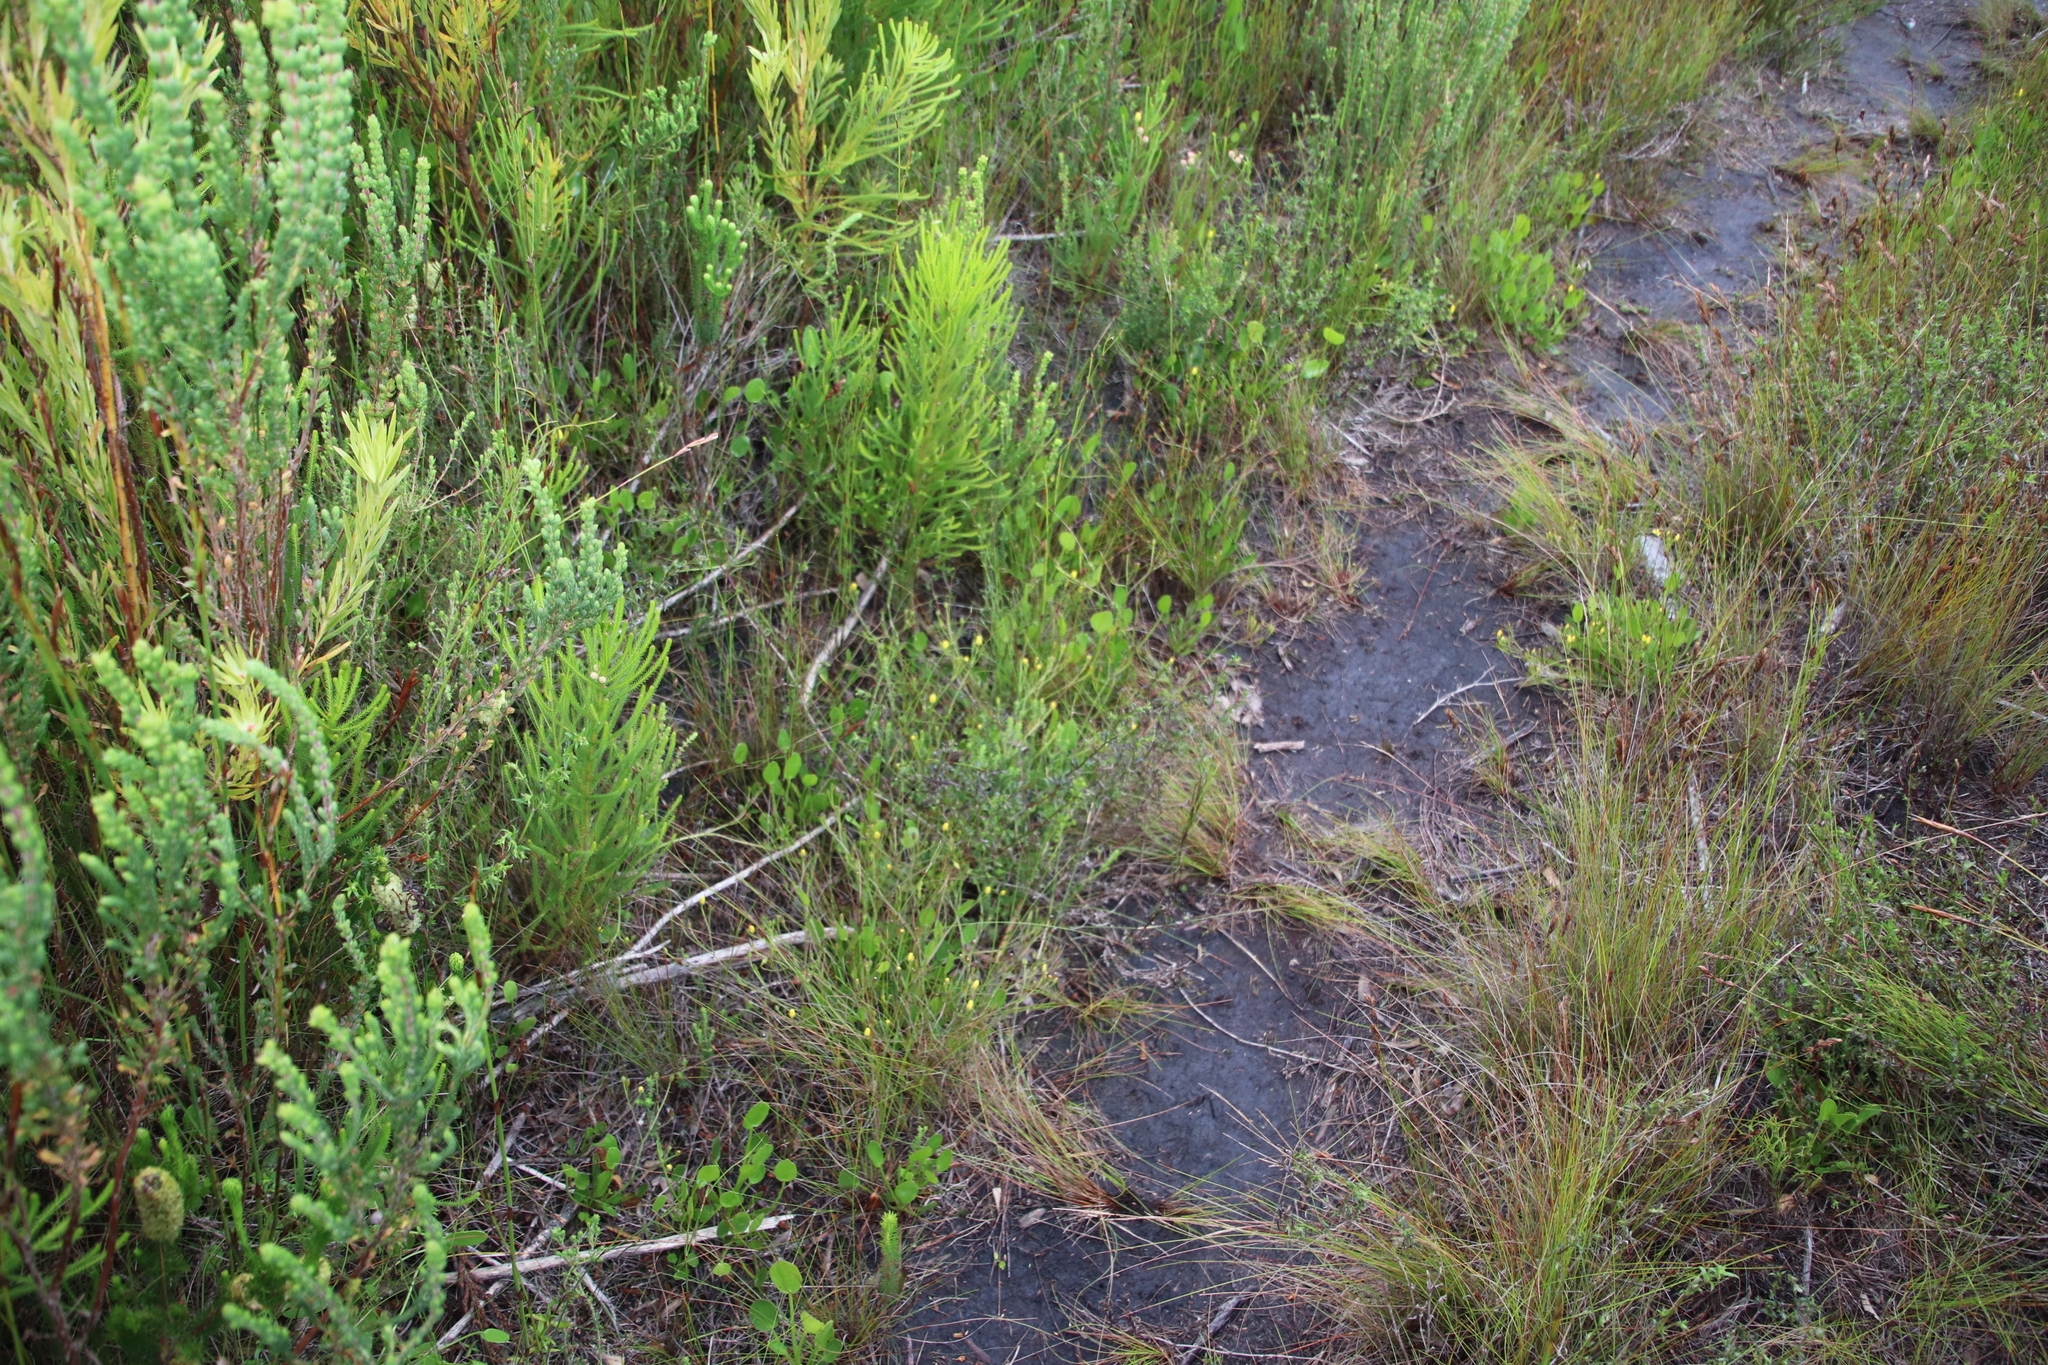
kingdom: Plantae
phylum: Tracheophyta
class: Magnoliopsida
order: Asterales
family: Menyanthaceae
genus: Villarsia
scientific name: Villarsia manningiana
